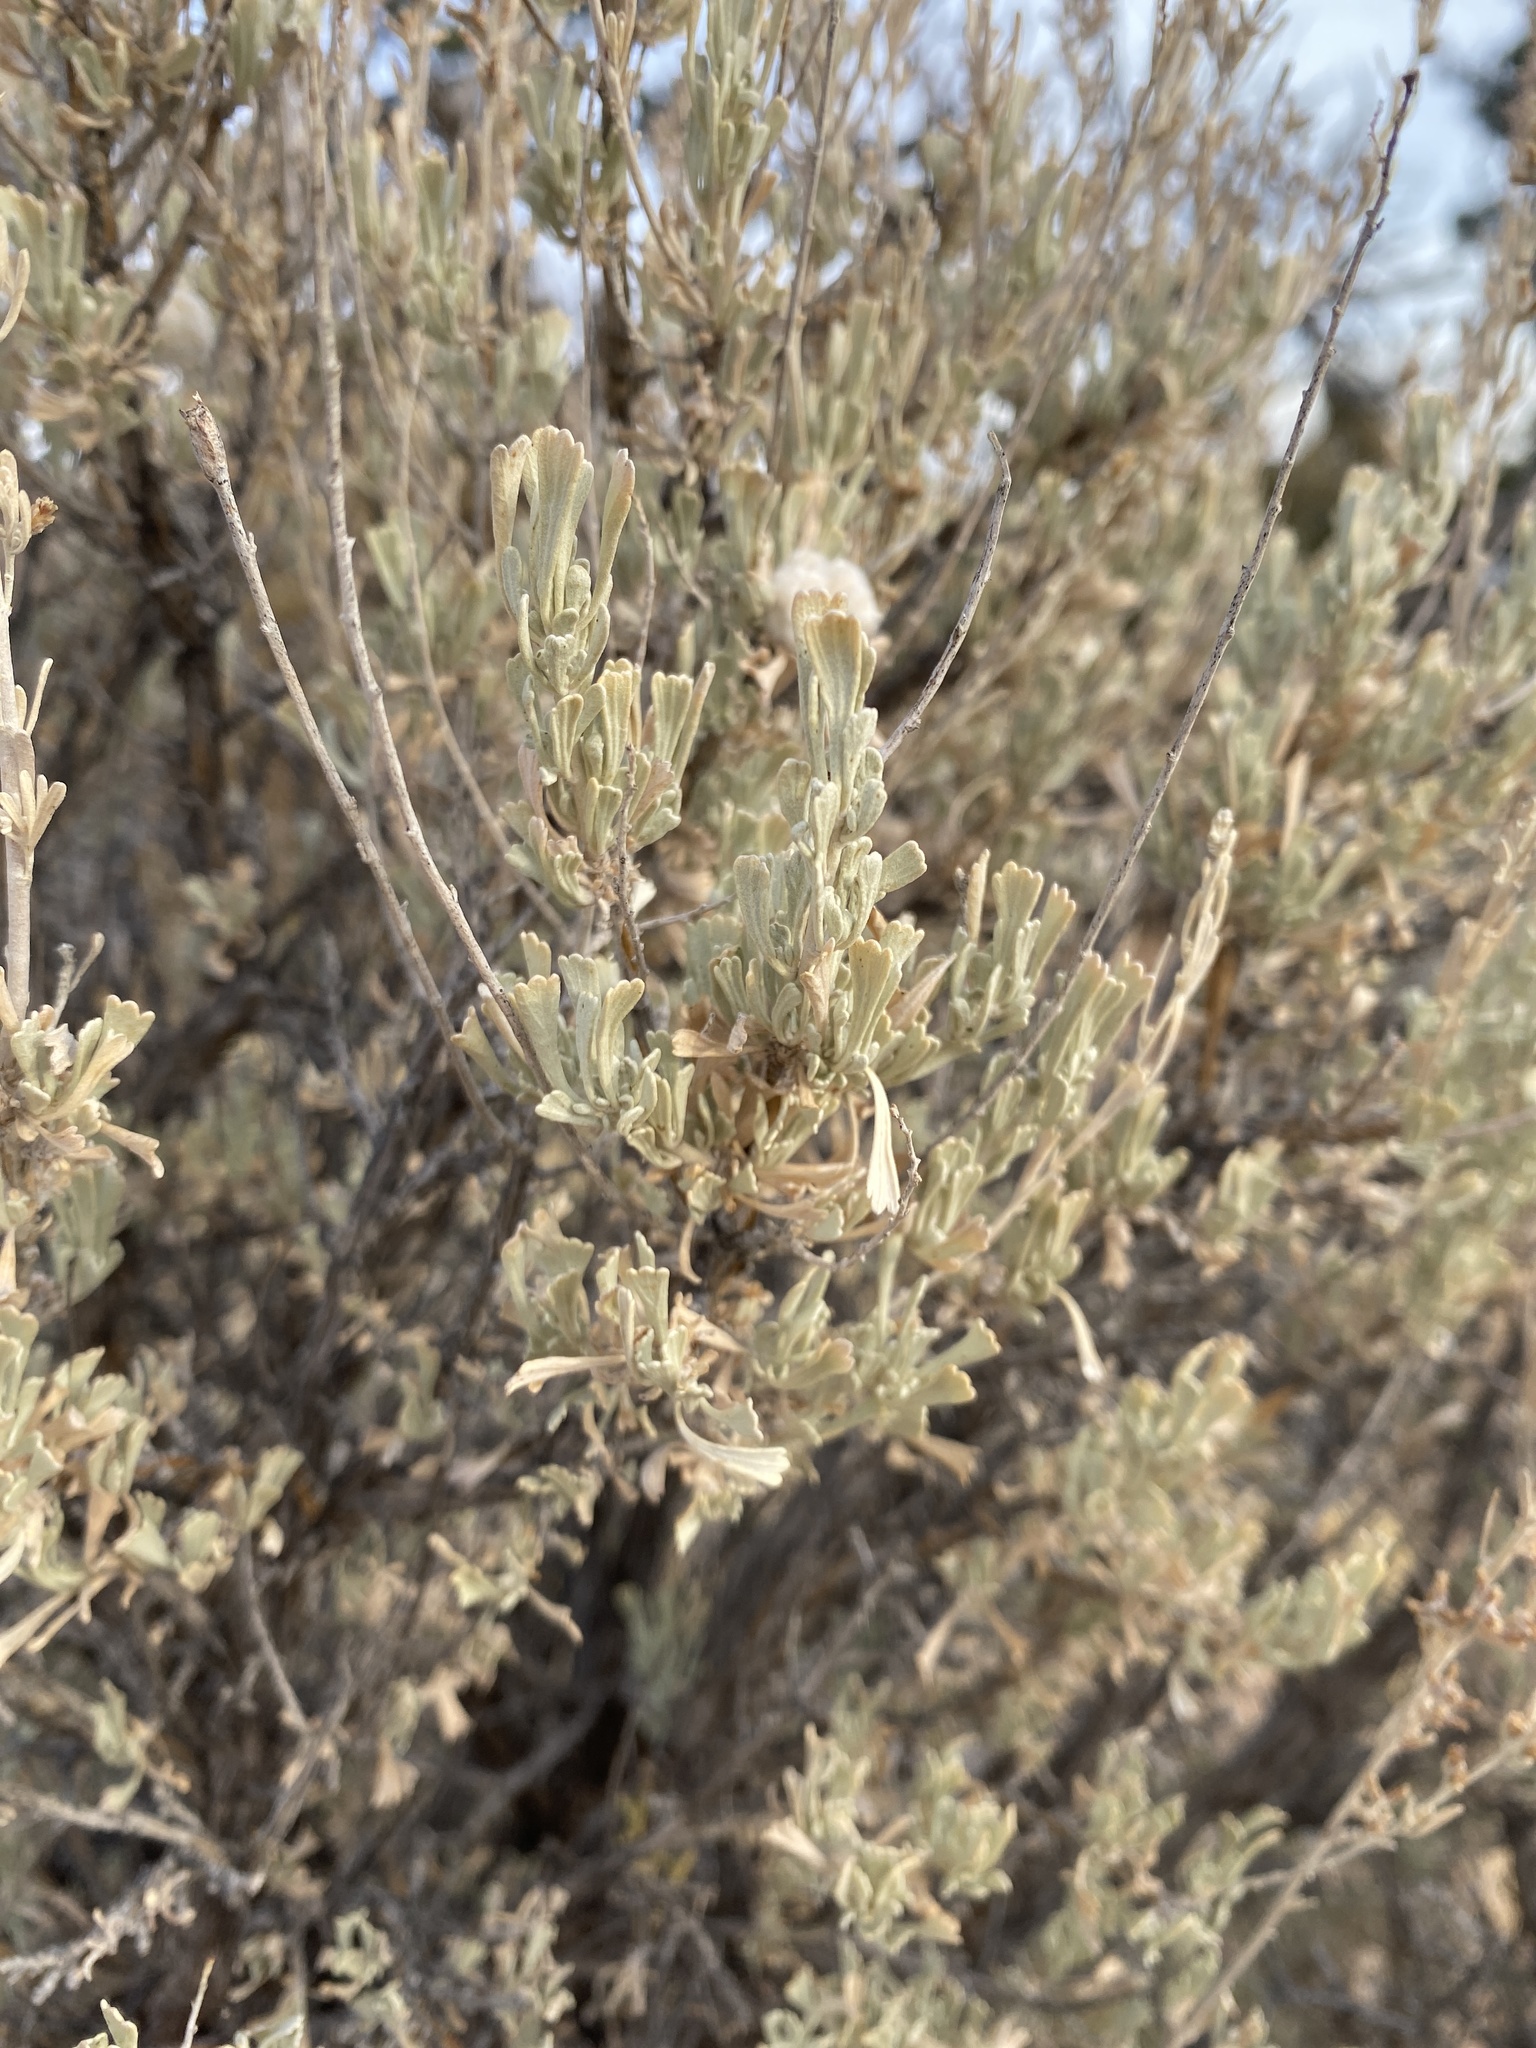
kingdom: Plantae
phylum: Tracheophyta
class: Magnoliopsida
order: Asterales
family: Asteraceae
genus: Artemisia
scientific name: Artemisia tridentata
